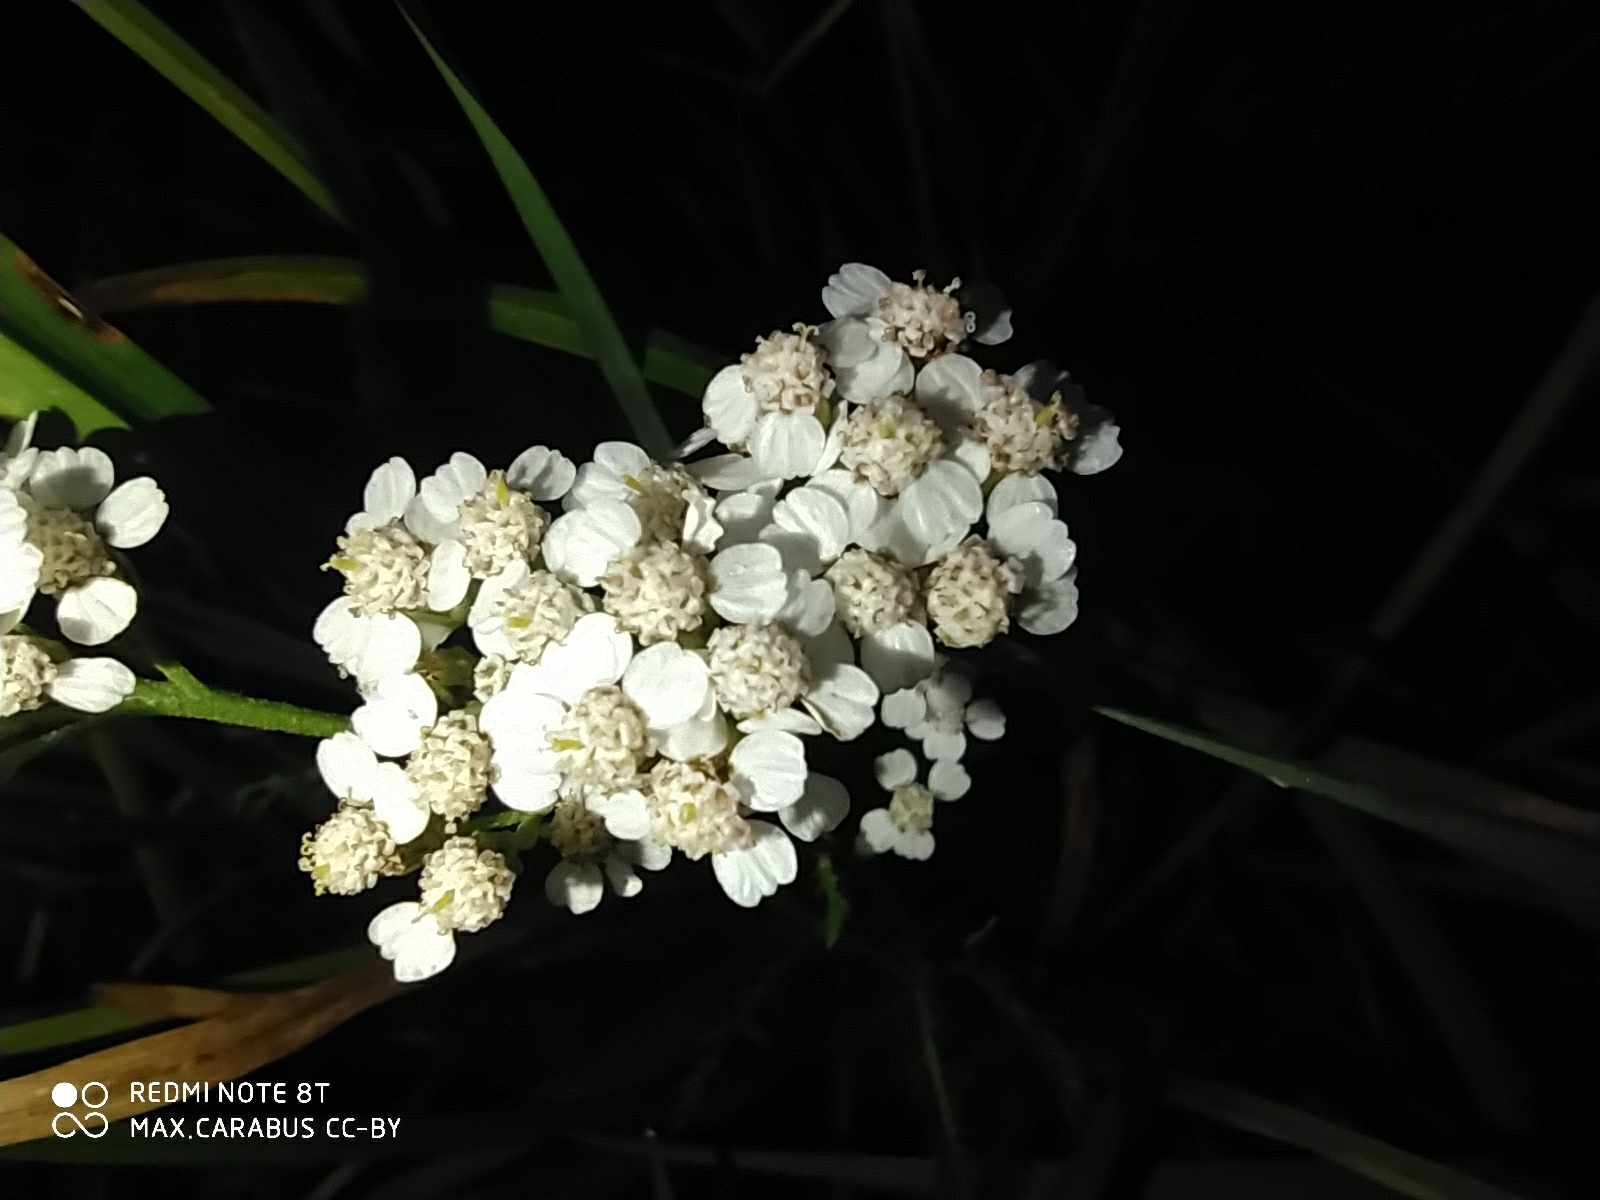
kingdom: Plantae
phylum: Tracheophyta
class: Magnoliopsida
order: Asterales
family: Asteraceae
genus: Achillea
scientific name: Achillea millefolium
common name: Yarrow
